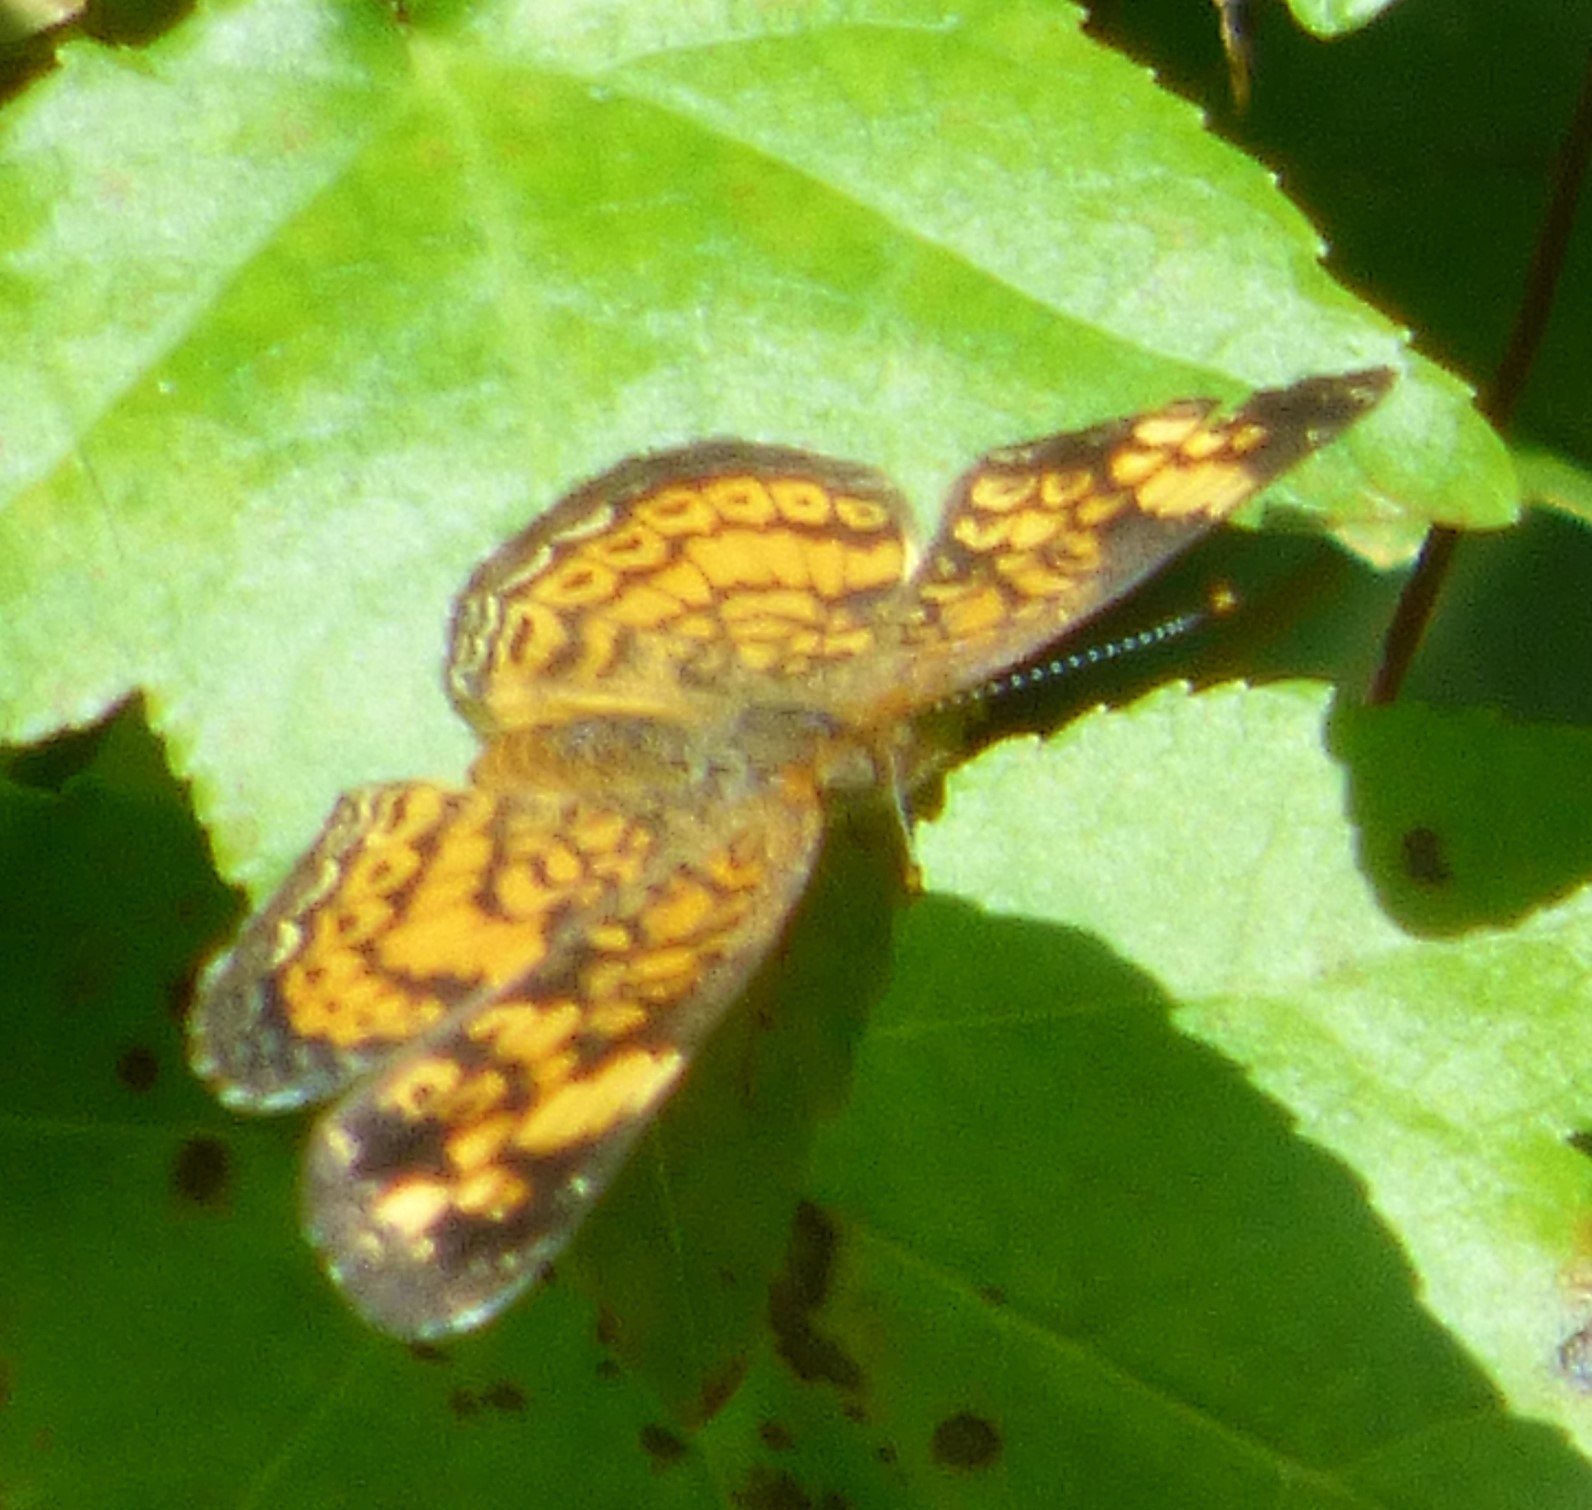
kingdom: Animalia
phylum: Arthropoda
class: Insecta
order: Lepidoptera
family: Nymphalidae
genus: Phyciodes
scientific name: Phyciodes tharos
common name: Pearl crescent
